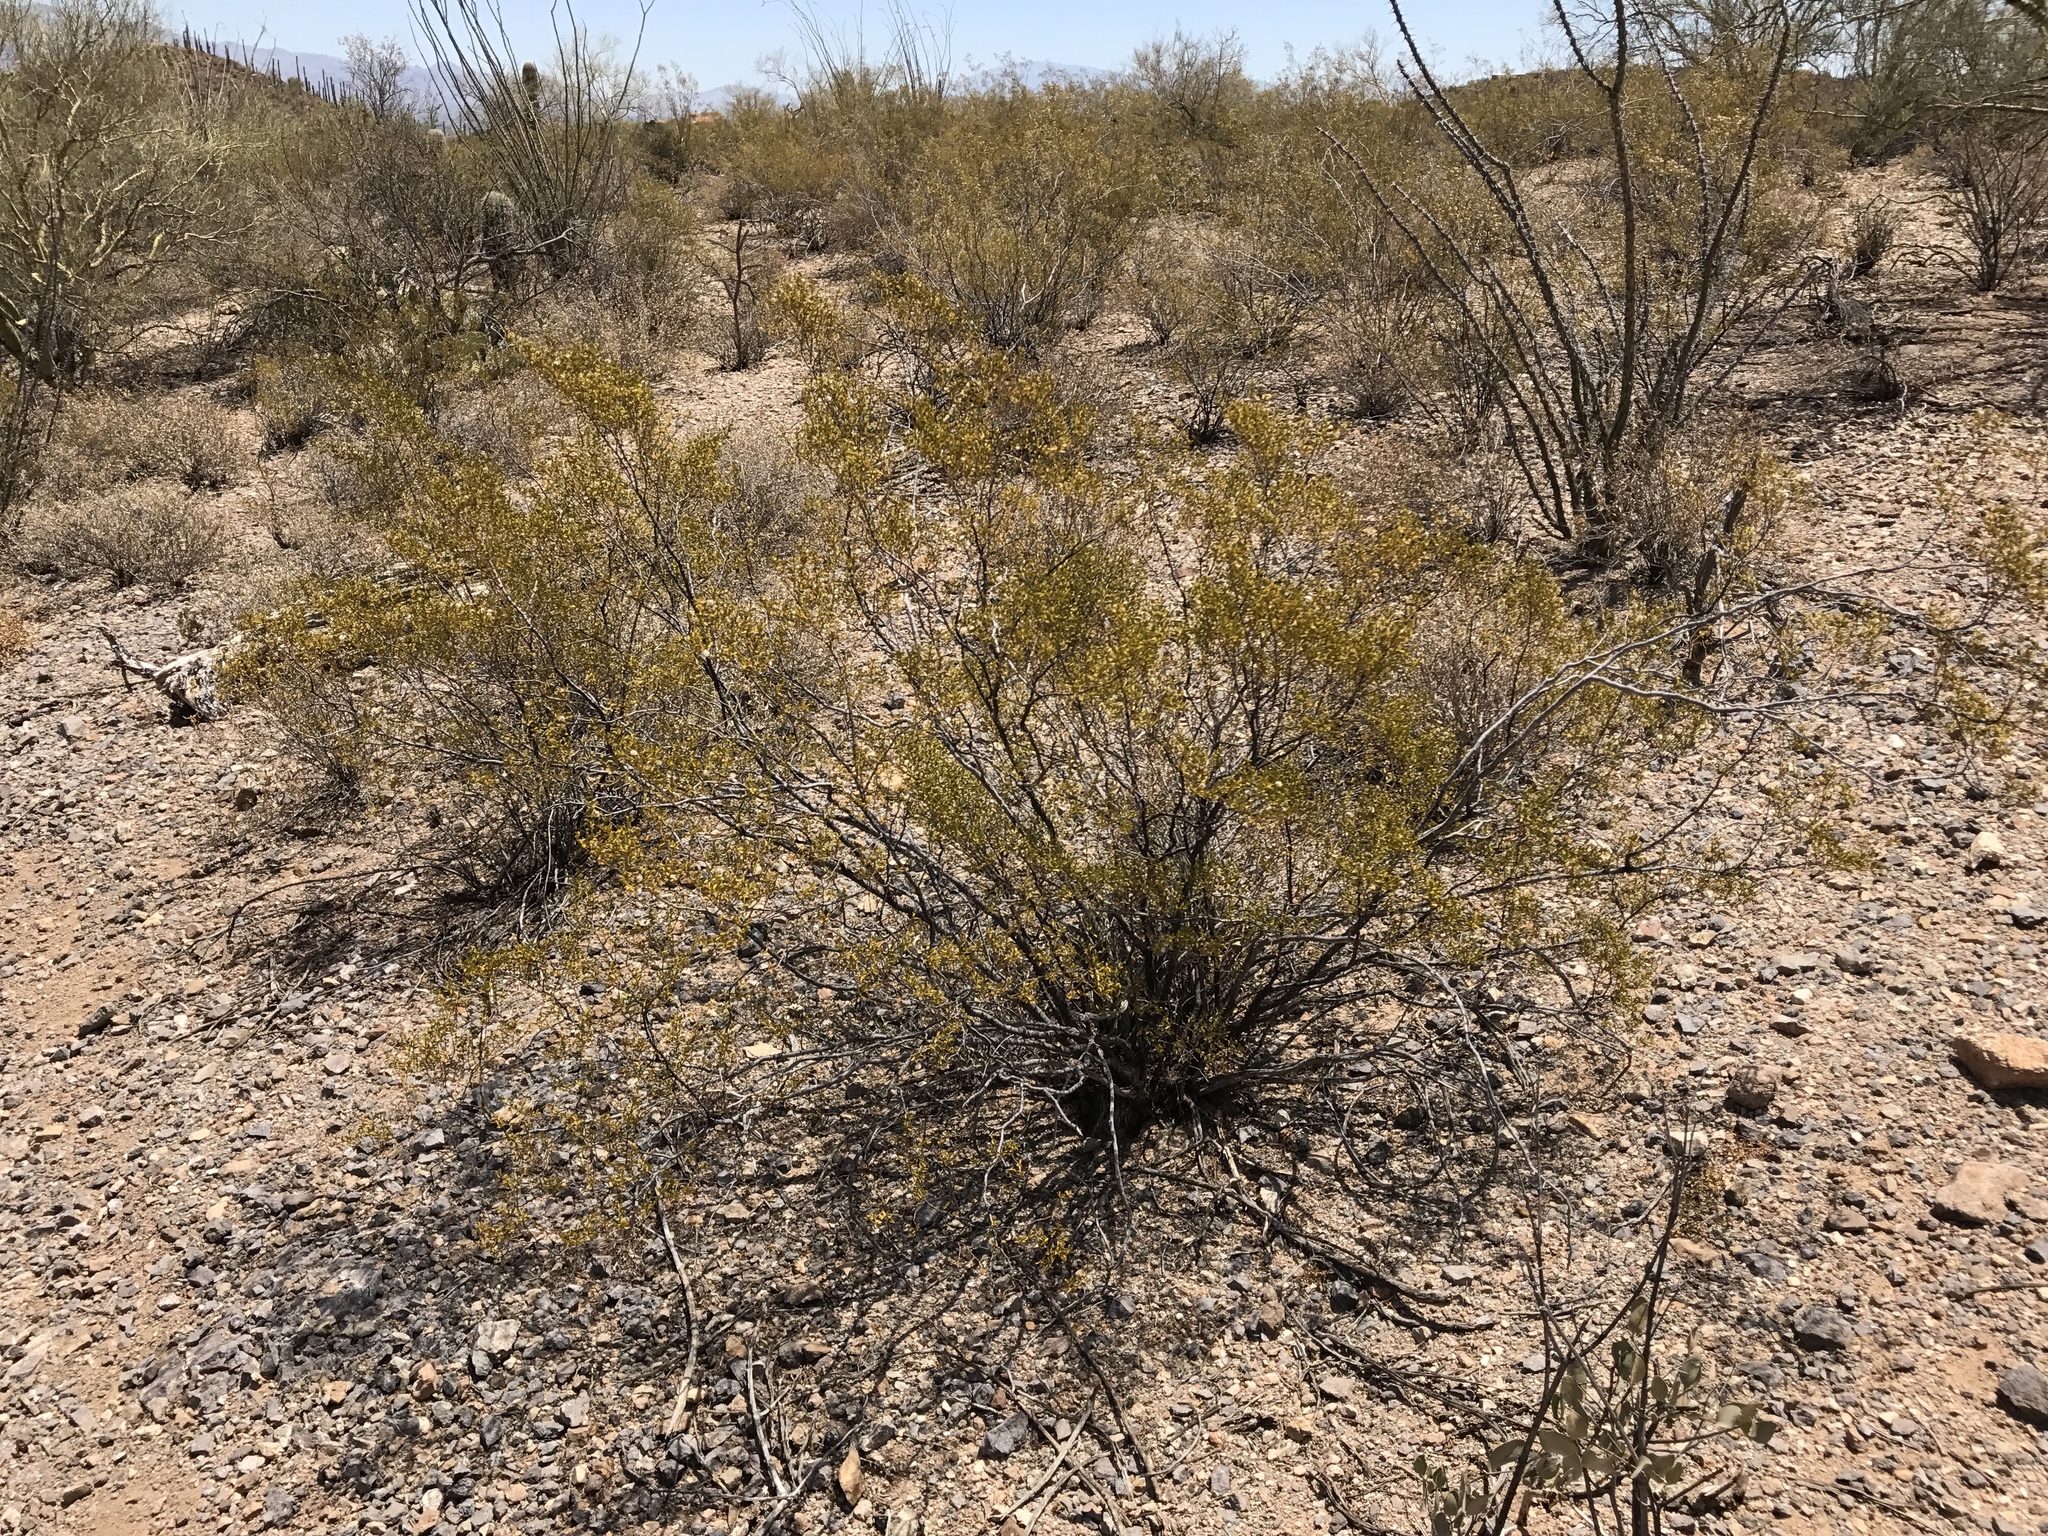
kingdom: Plantae
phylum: Tracheophyta
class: Magnoliopsida
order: Zygophyllales
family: Zygophyllaceae
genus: Larrea
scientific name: Larrea tridentata
